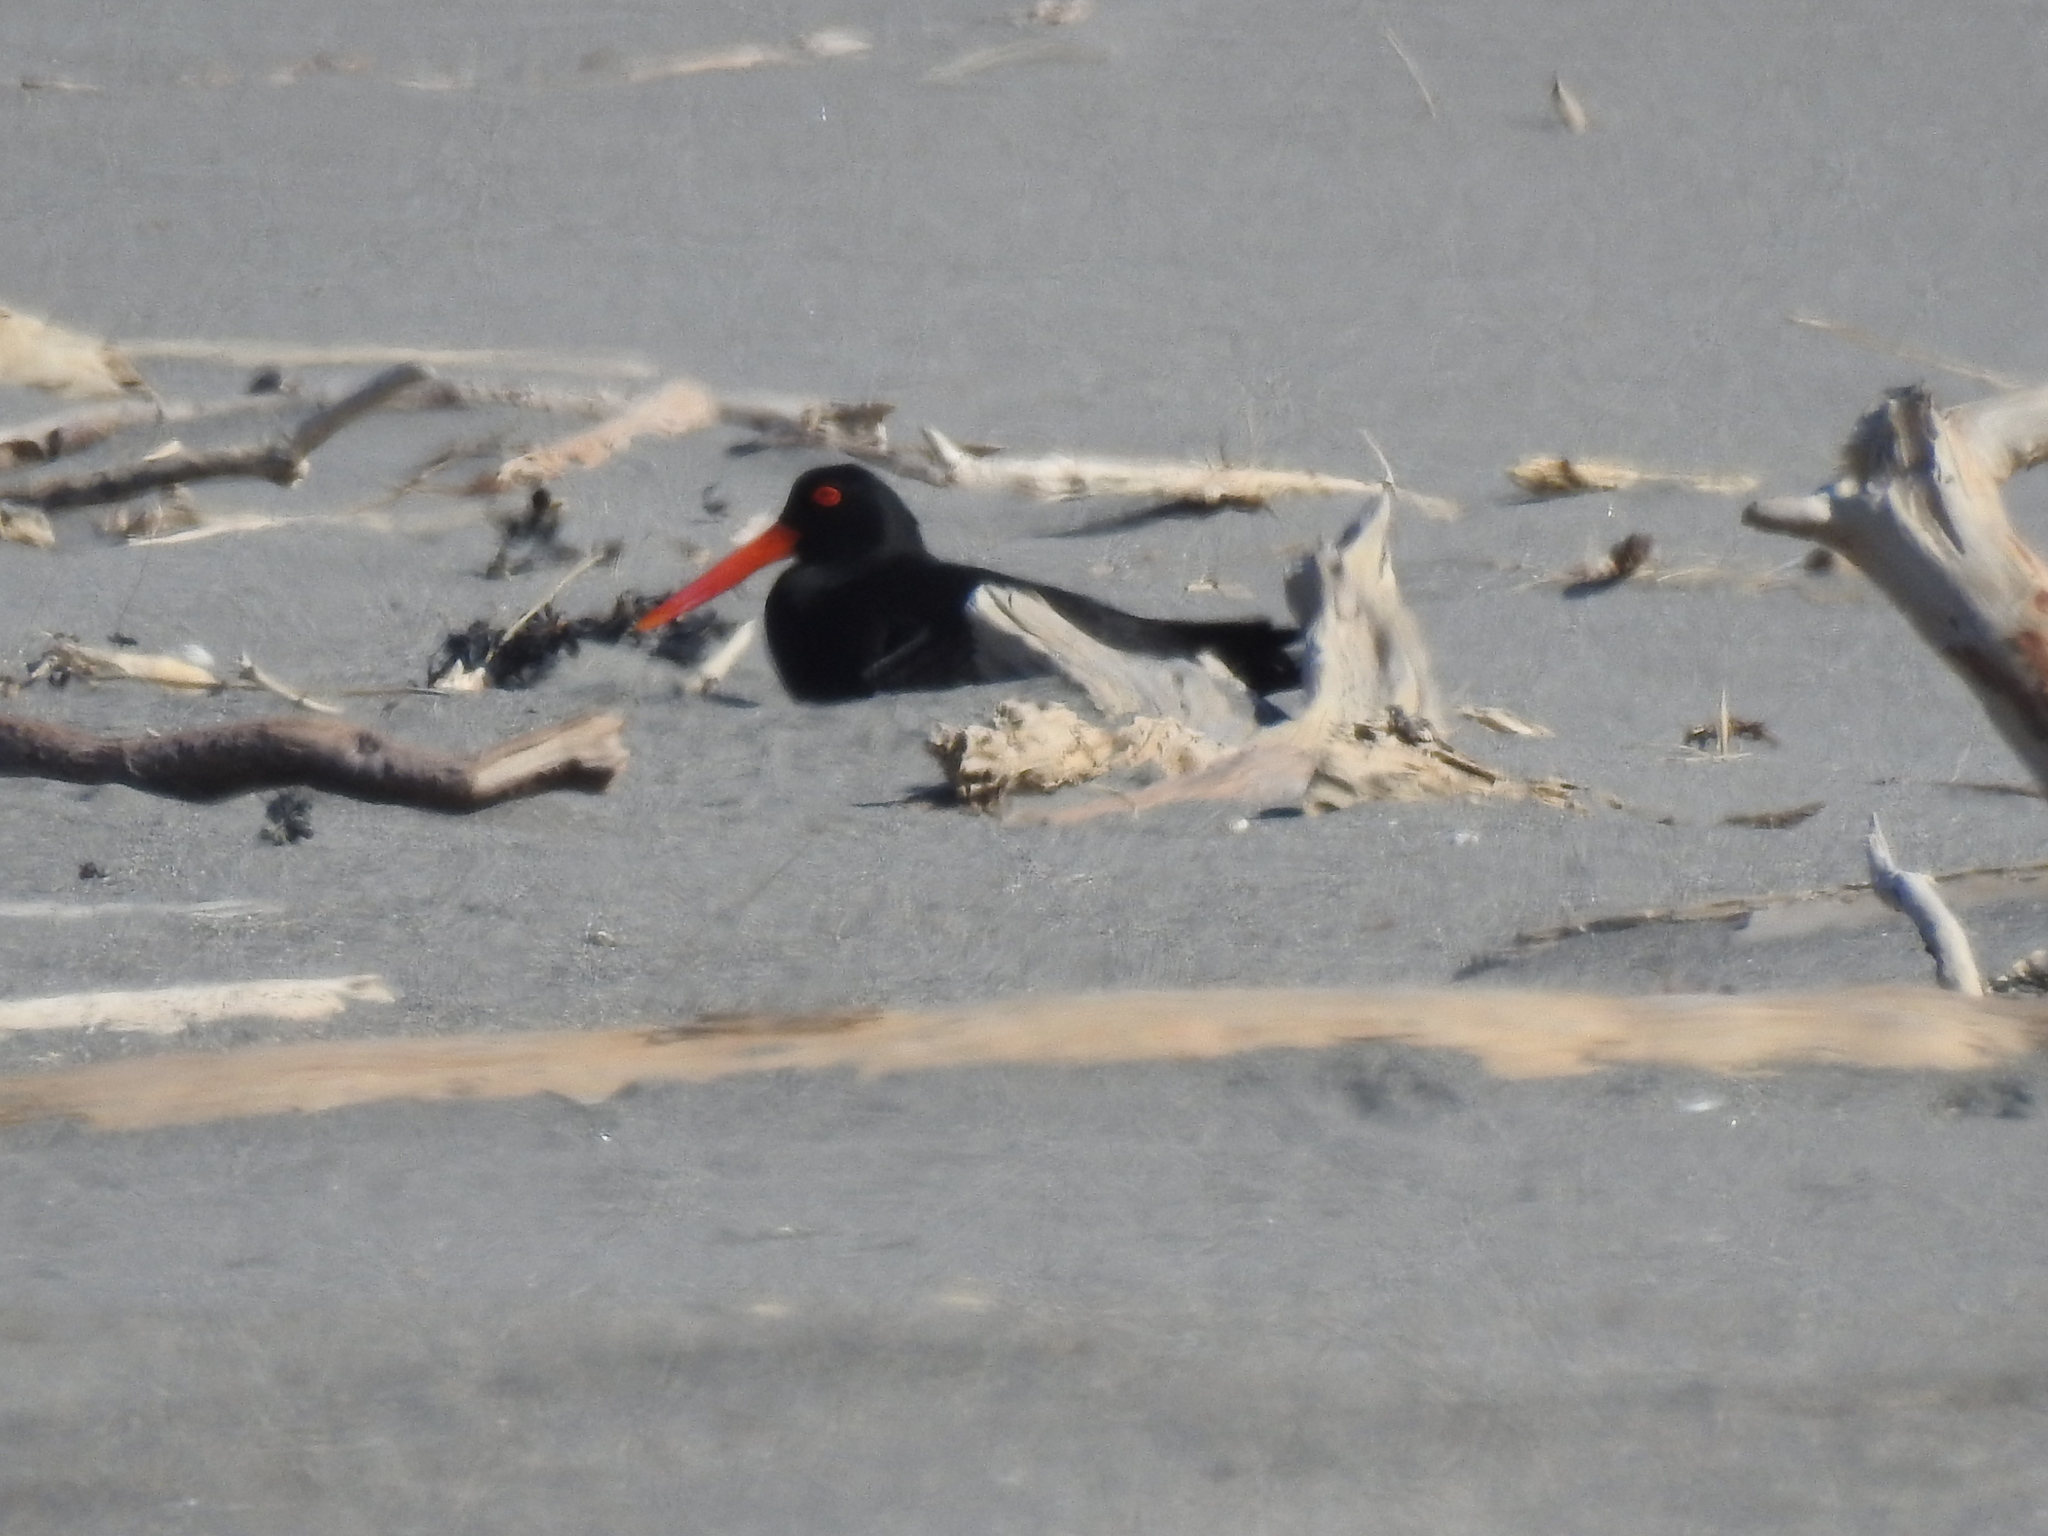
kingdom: Animalia
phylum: Chordata
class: Aves
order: Charadriiformes
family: Haematopodidae
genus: Haematopus
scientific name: Haematopus unicolor
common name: Variable oystercatcher
